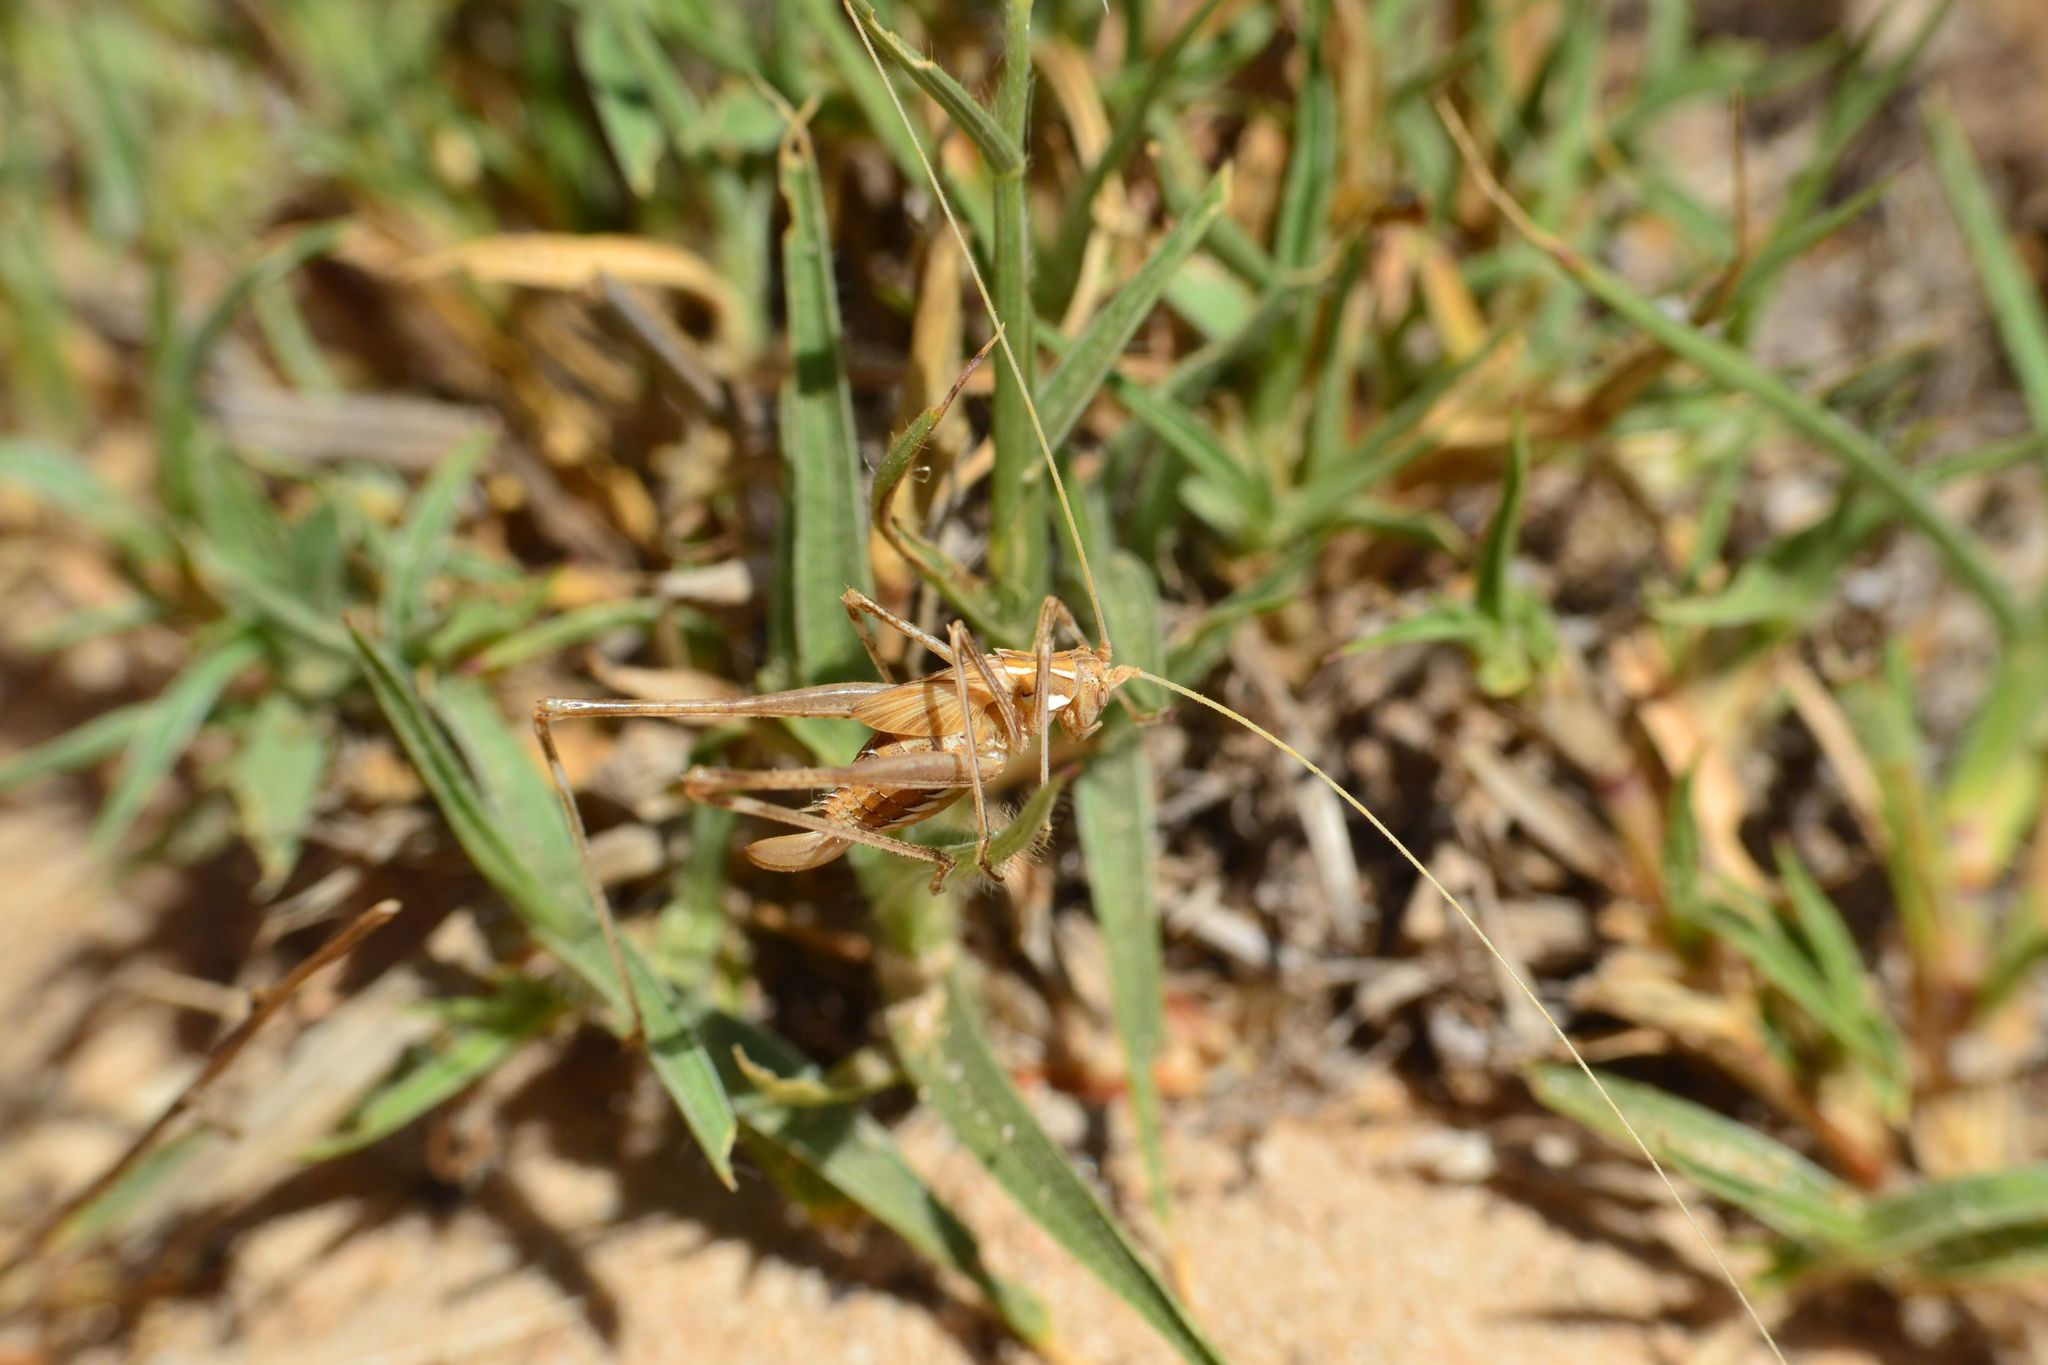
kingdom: Animalia
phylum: Arthropoda
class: Insecta
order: Orthoptera
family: Tettigoniidae
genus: Tylopsis
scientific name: Tylopsis lilifolia
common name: Lily bush-cricket
